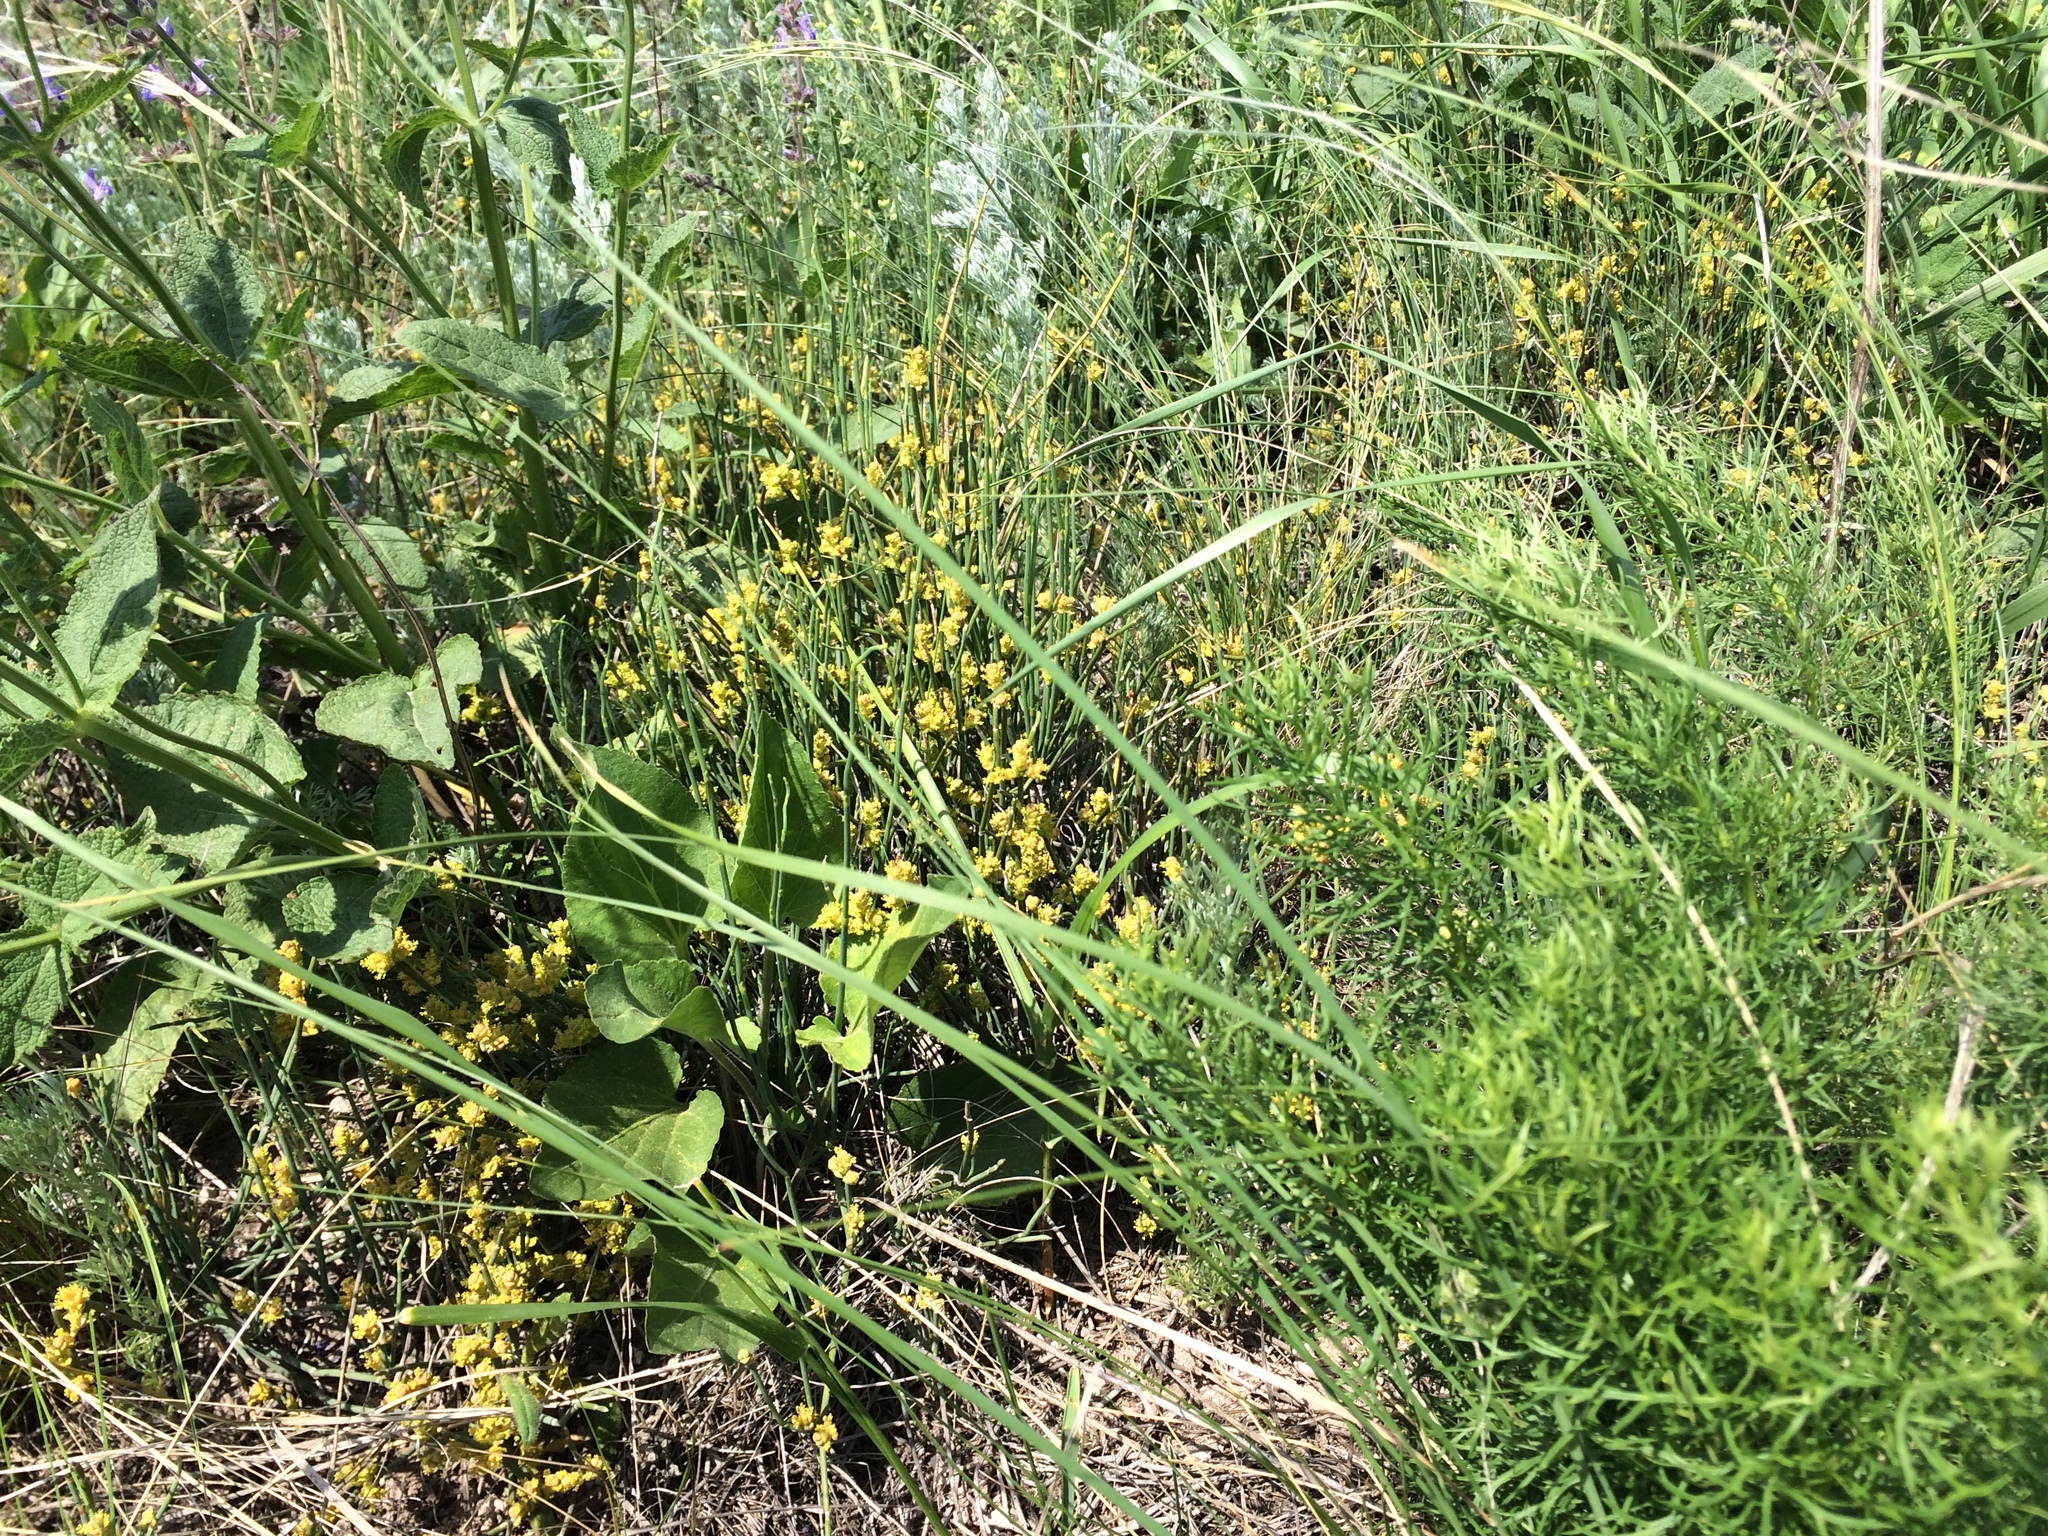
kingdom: Plantae
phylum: Tracheophyta
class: Gnetopsida
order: Ephedrales
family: Ephedraceae
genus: Ephedra
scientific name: Ephedra distachya
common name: Sea grape
